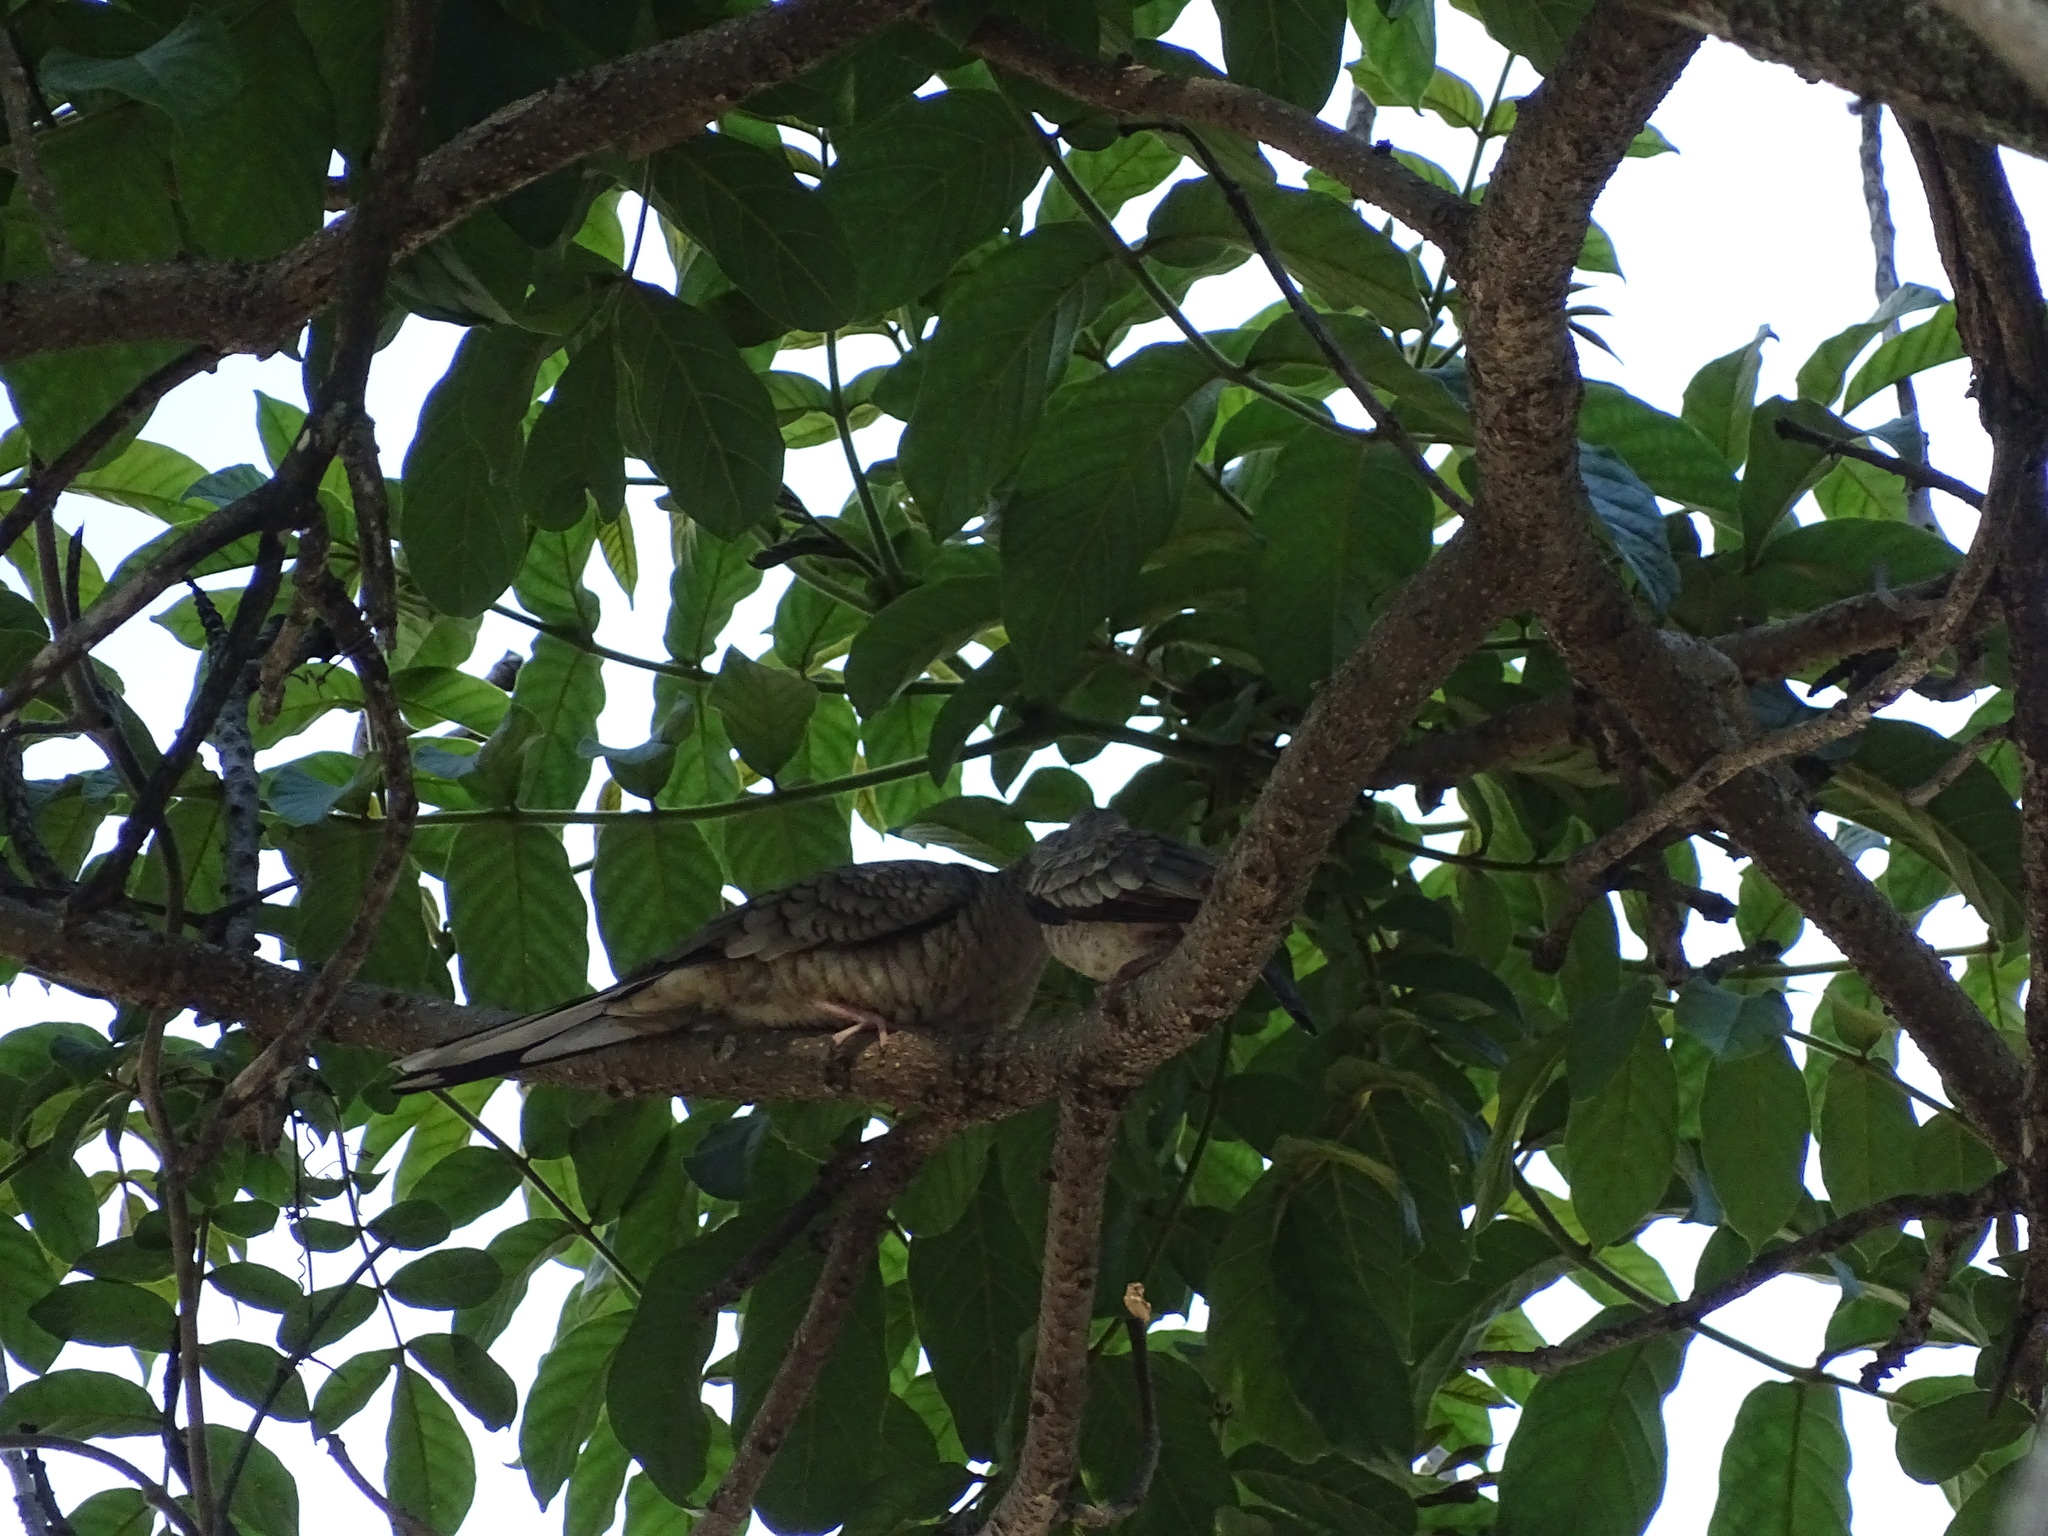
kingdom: Animalia
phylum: Chordata
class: Aves
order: Columbiformes
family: Columbidae
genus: Columbina
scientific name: Columbina inca
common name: Inca dove
